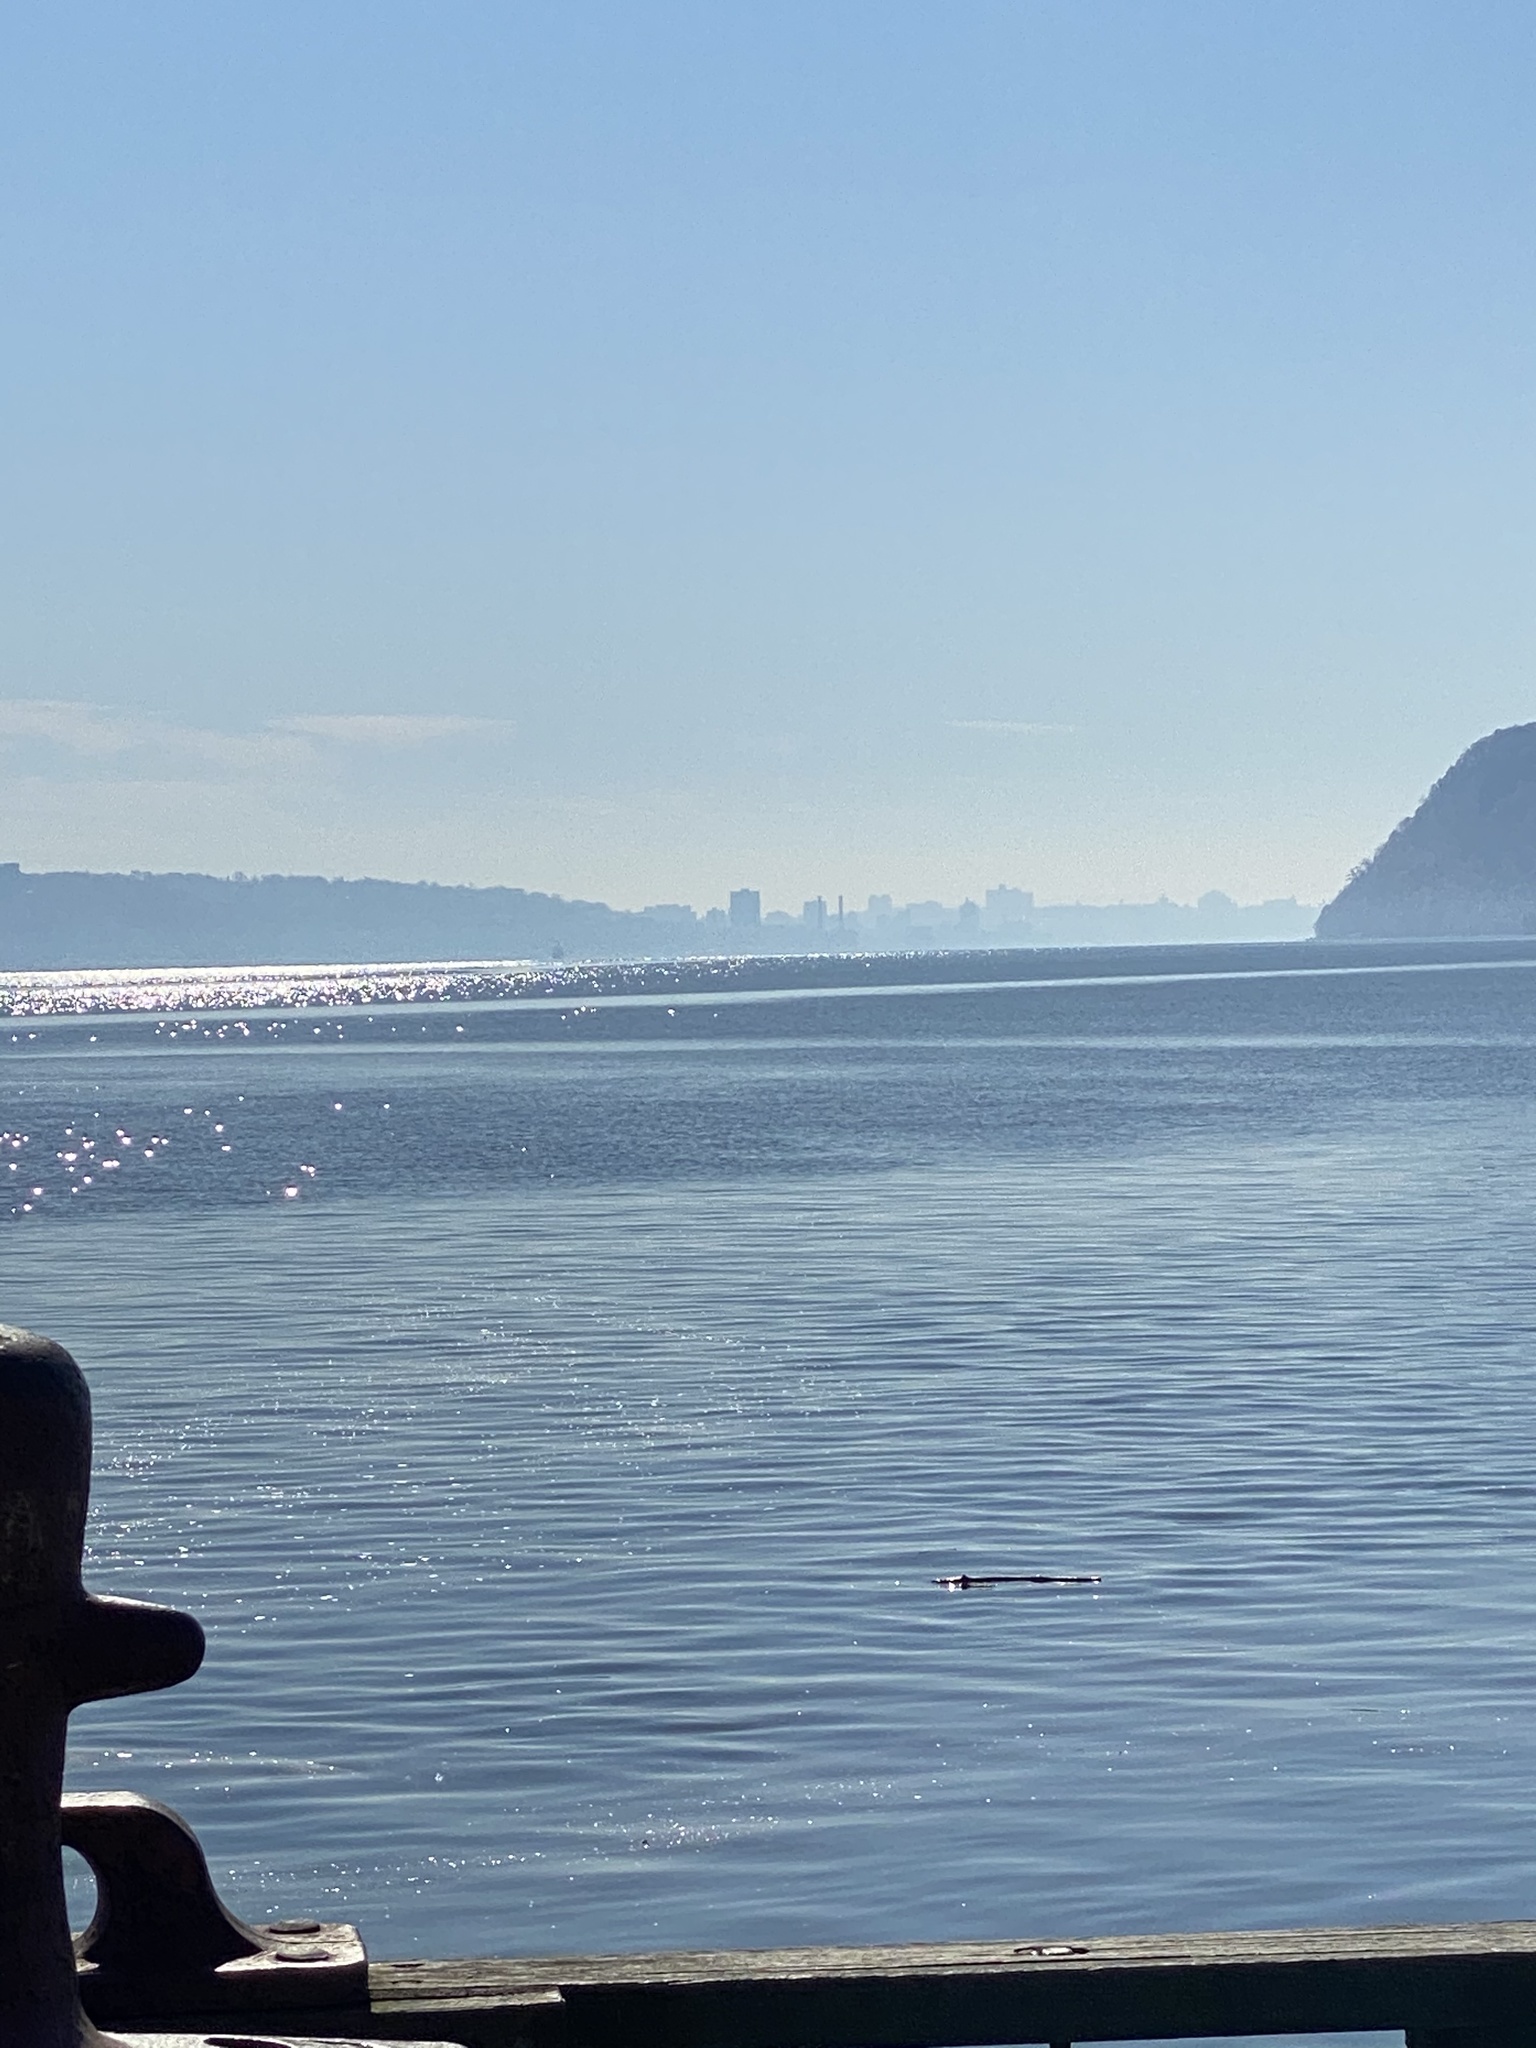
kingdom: Plantae
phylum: Tracheophyta
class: Magnoliopsida
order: Lamiales
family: Scrophulariaceae
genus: Verbascum
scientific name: Verbascum thapsus
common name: Common mullein
